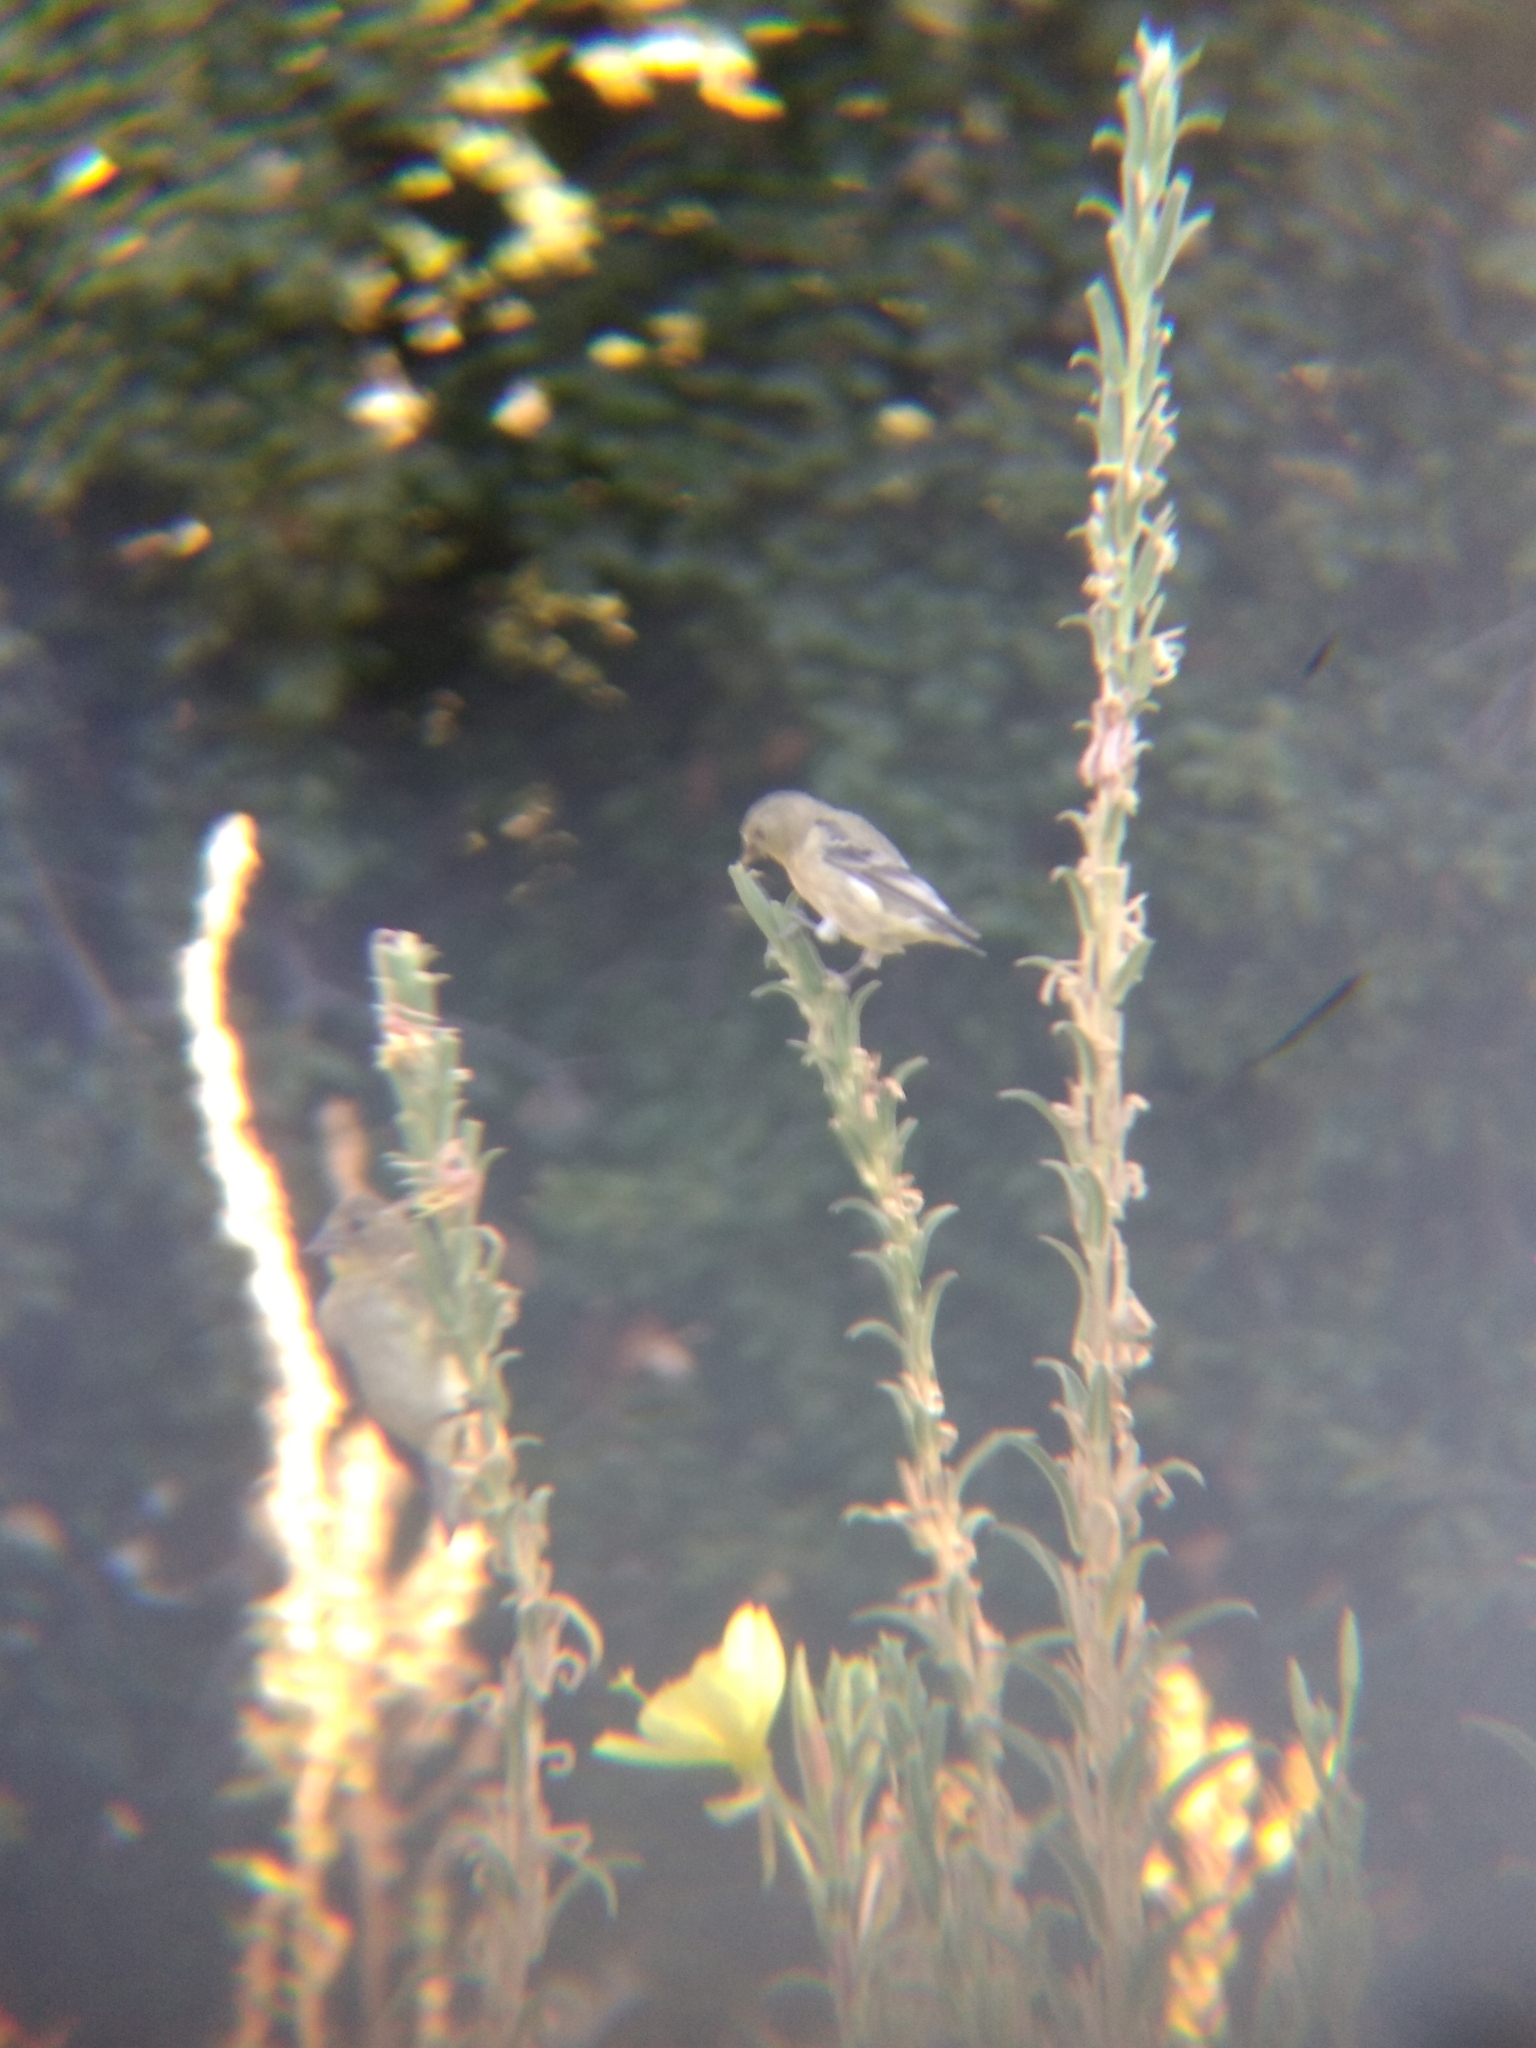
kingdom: Animalia
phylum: Chordata
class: Aves
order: Passeriformes
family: Fringillidae
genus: Spinus
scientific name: Spinus psaltria
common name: Lesser goldfinch
